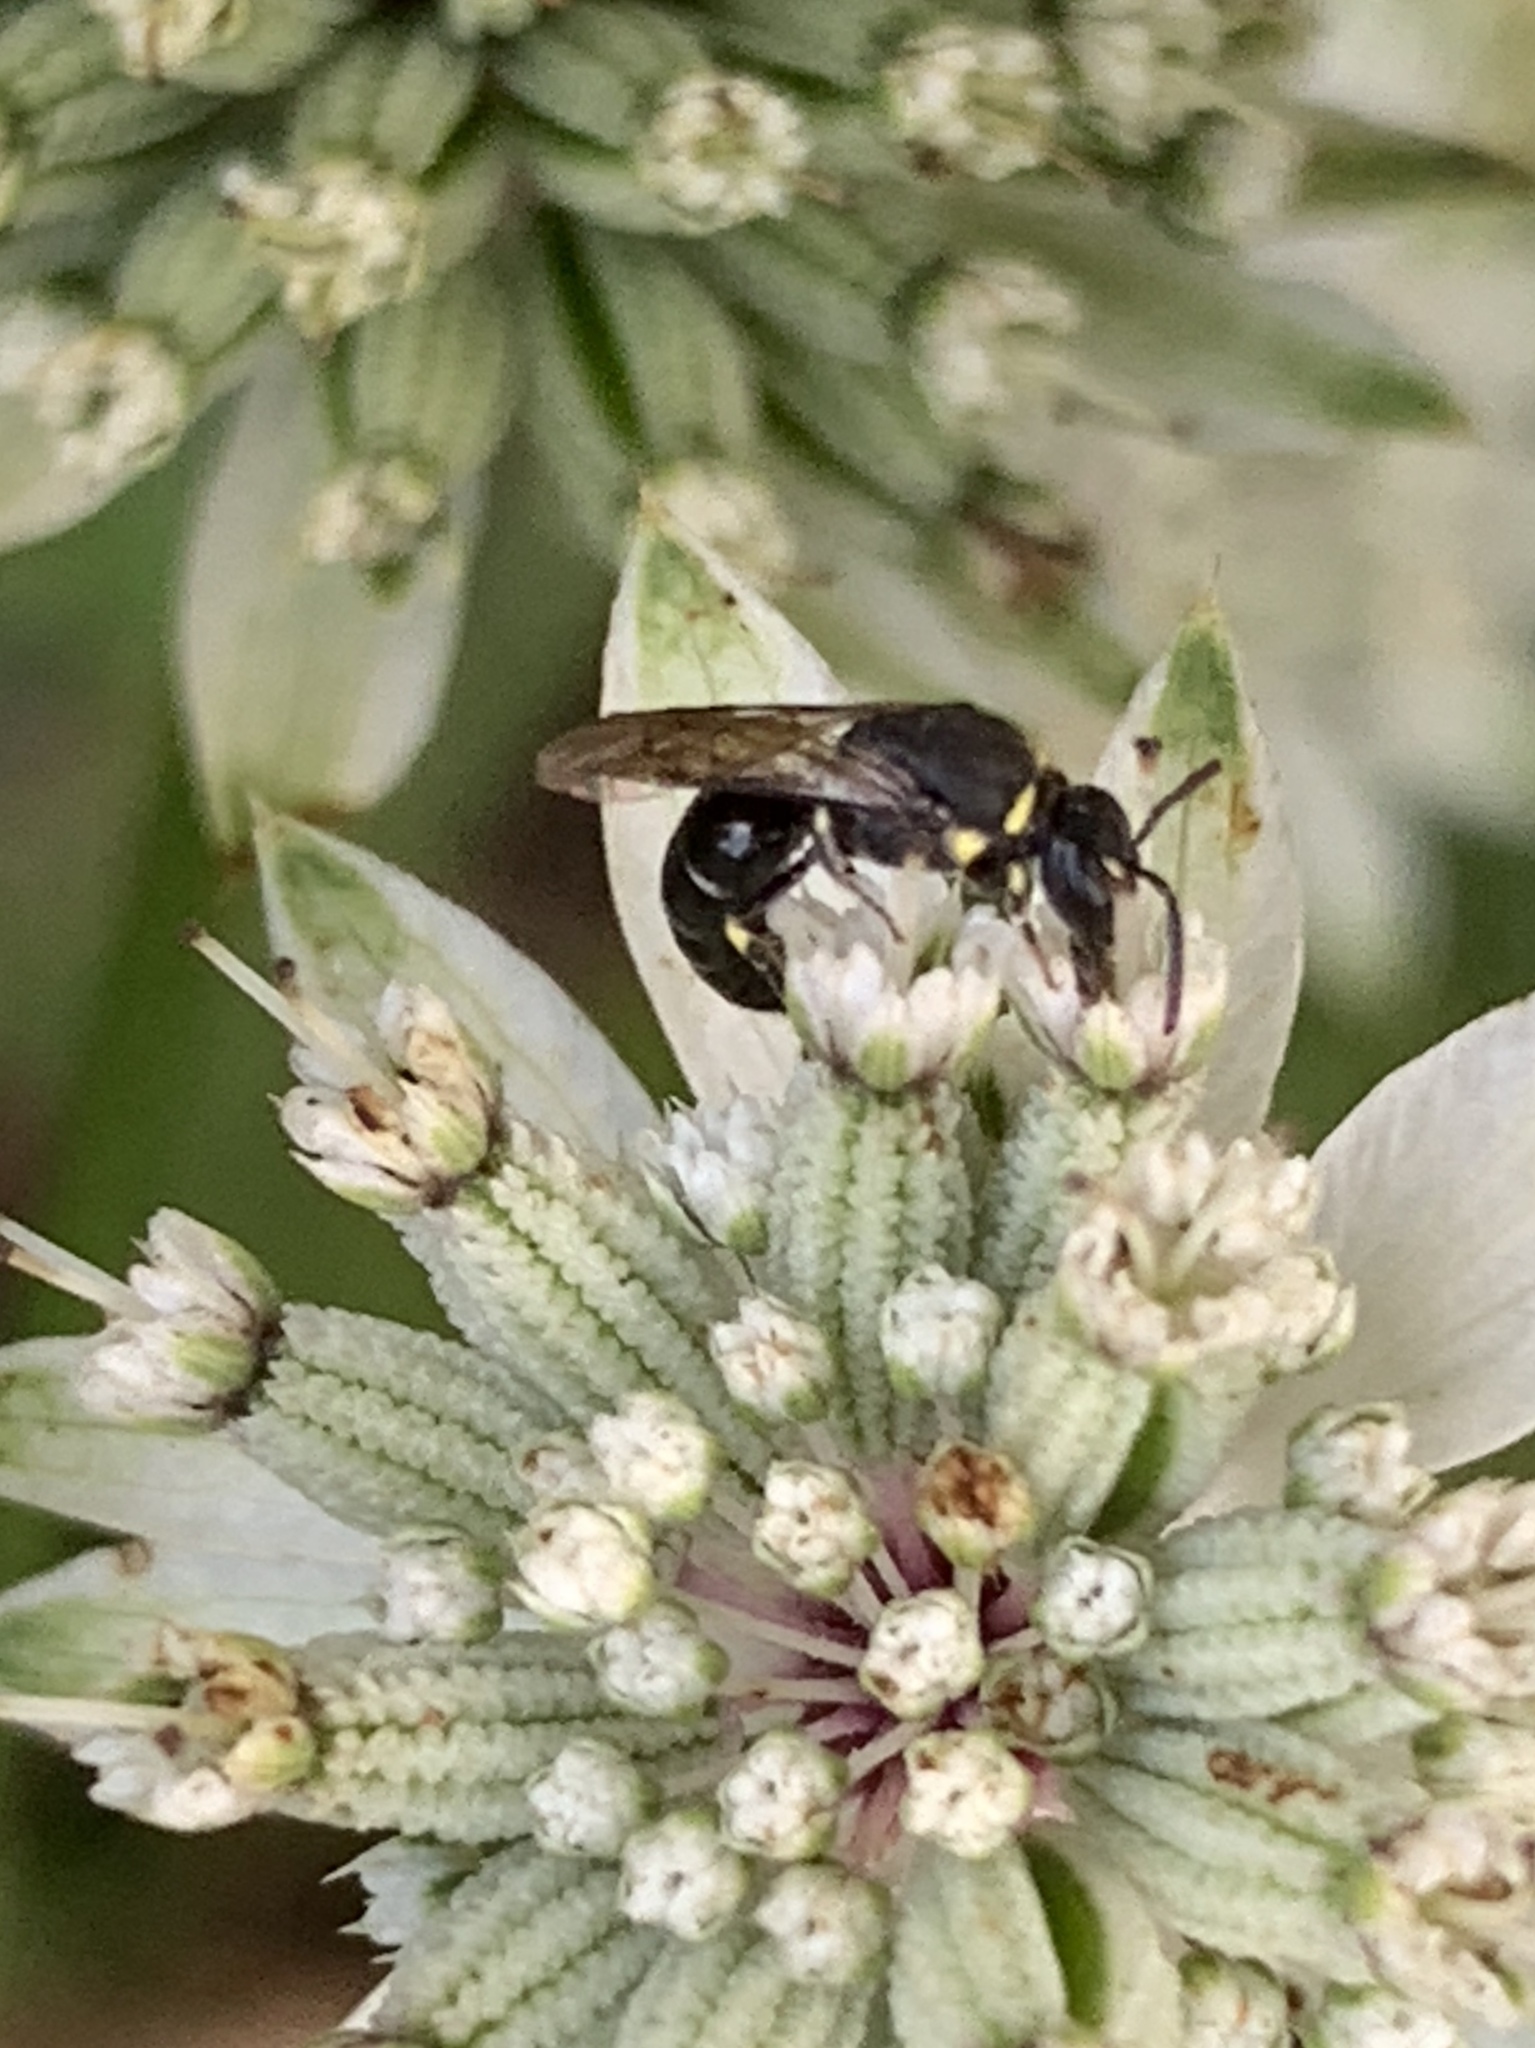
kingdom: Animalia
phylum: Arthropoda
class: Insecta
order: Hymenoptera
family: Colletidae
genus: Hylaeus
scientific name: Hylaeus modestus
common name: Yellow-faced bee
